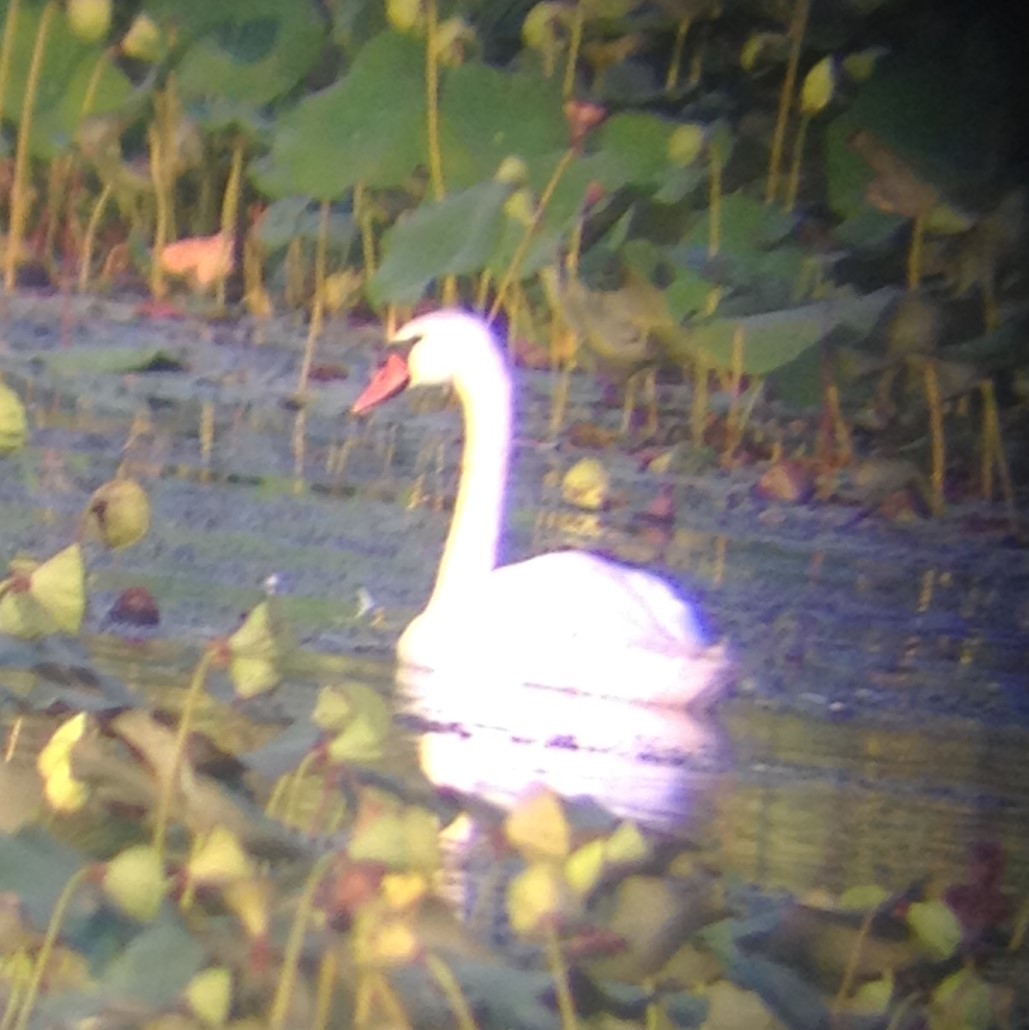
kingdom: Animalia
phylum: Chordata
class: Aves
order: Anseriformes
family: Anatidae
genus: Cygnus
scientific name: Cygnus olor
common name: Mute swan
